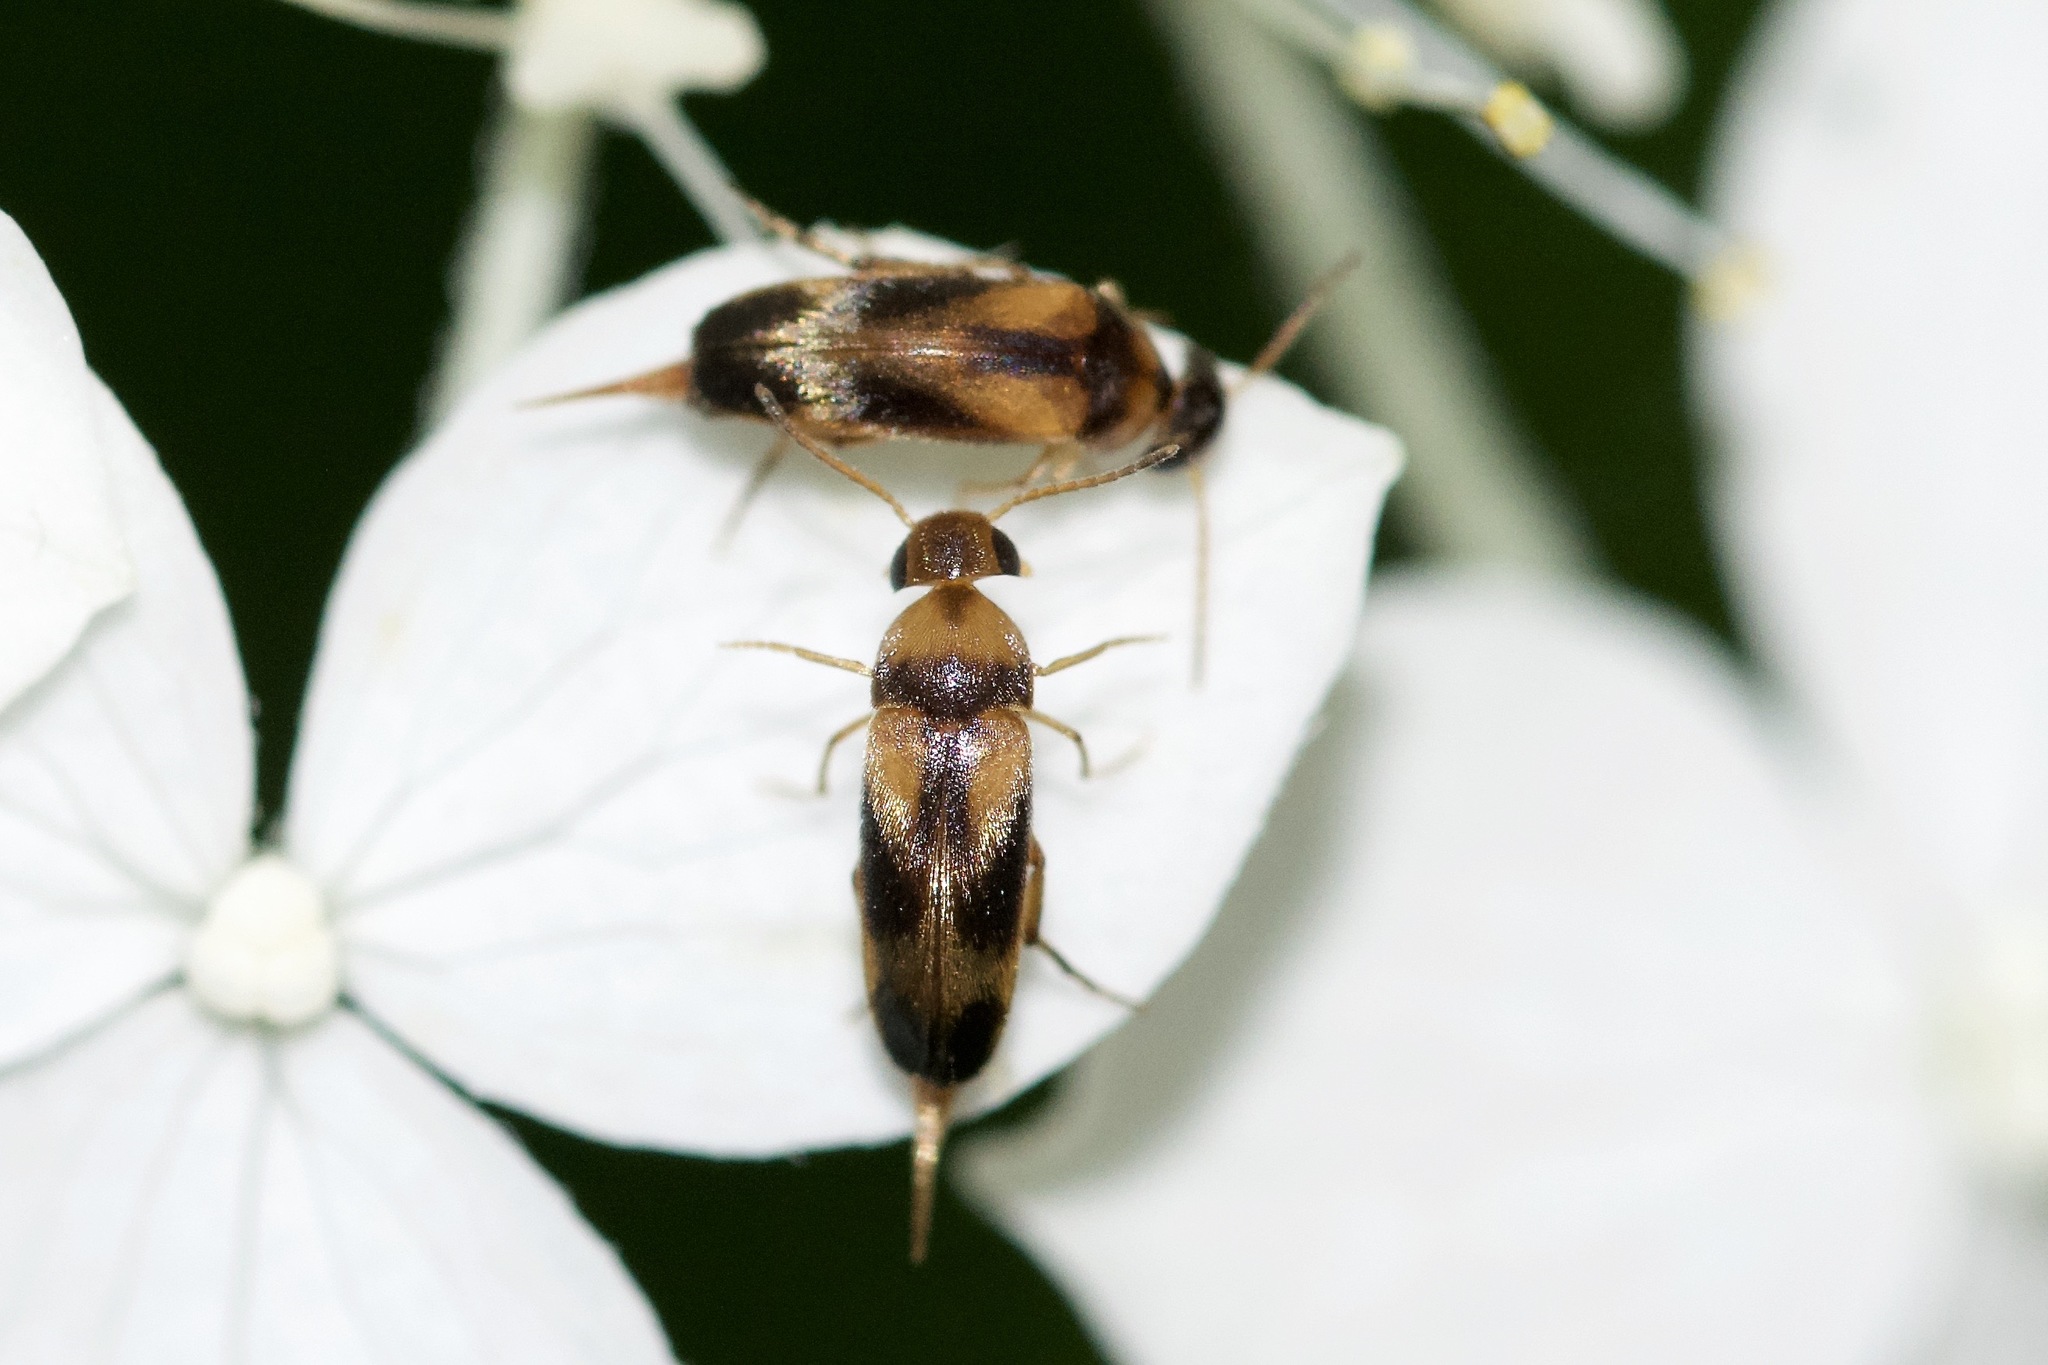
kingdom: Animalia
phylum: Arthropoda
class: Insecta
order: Coleoptera
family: Mordellidae
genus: Mordellistena
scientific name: Mordellistena ornata
